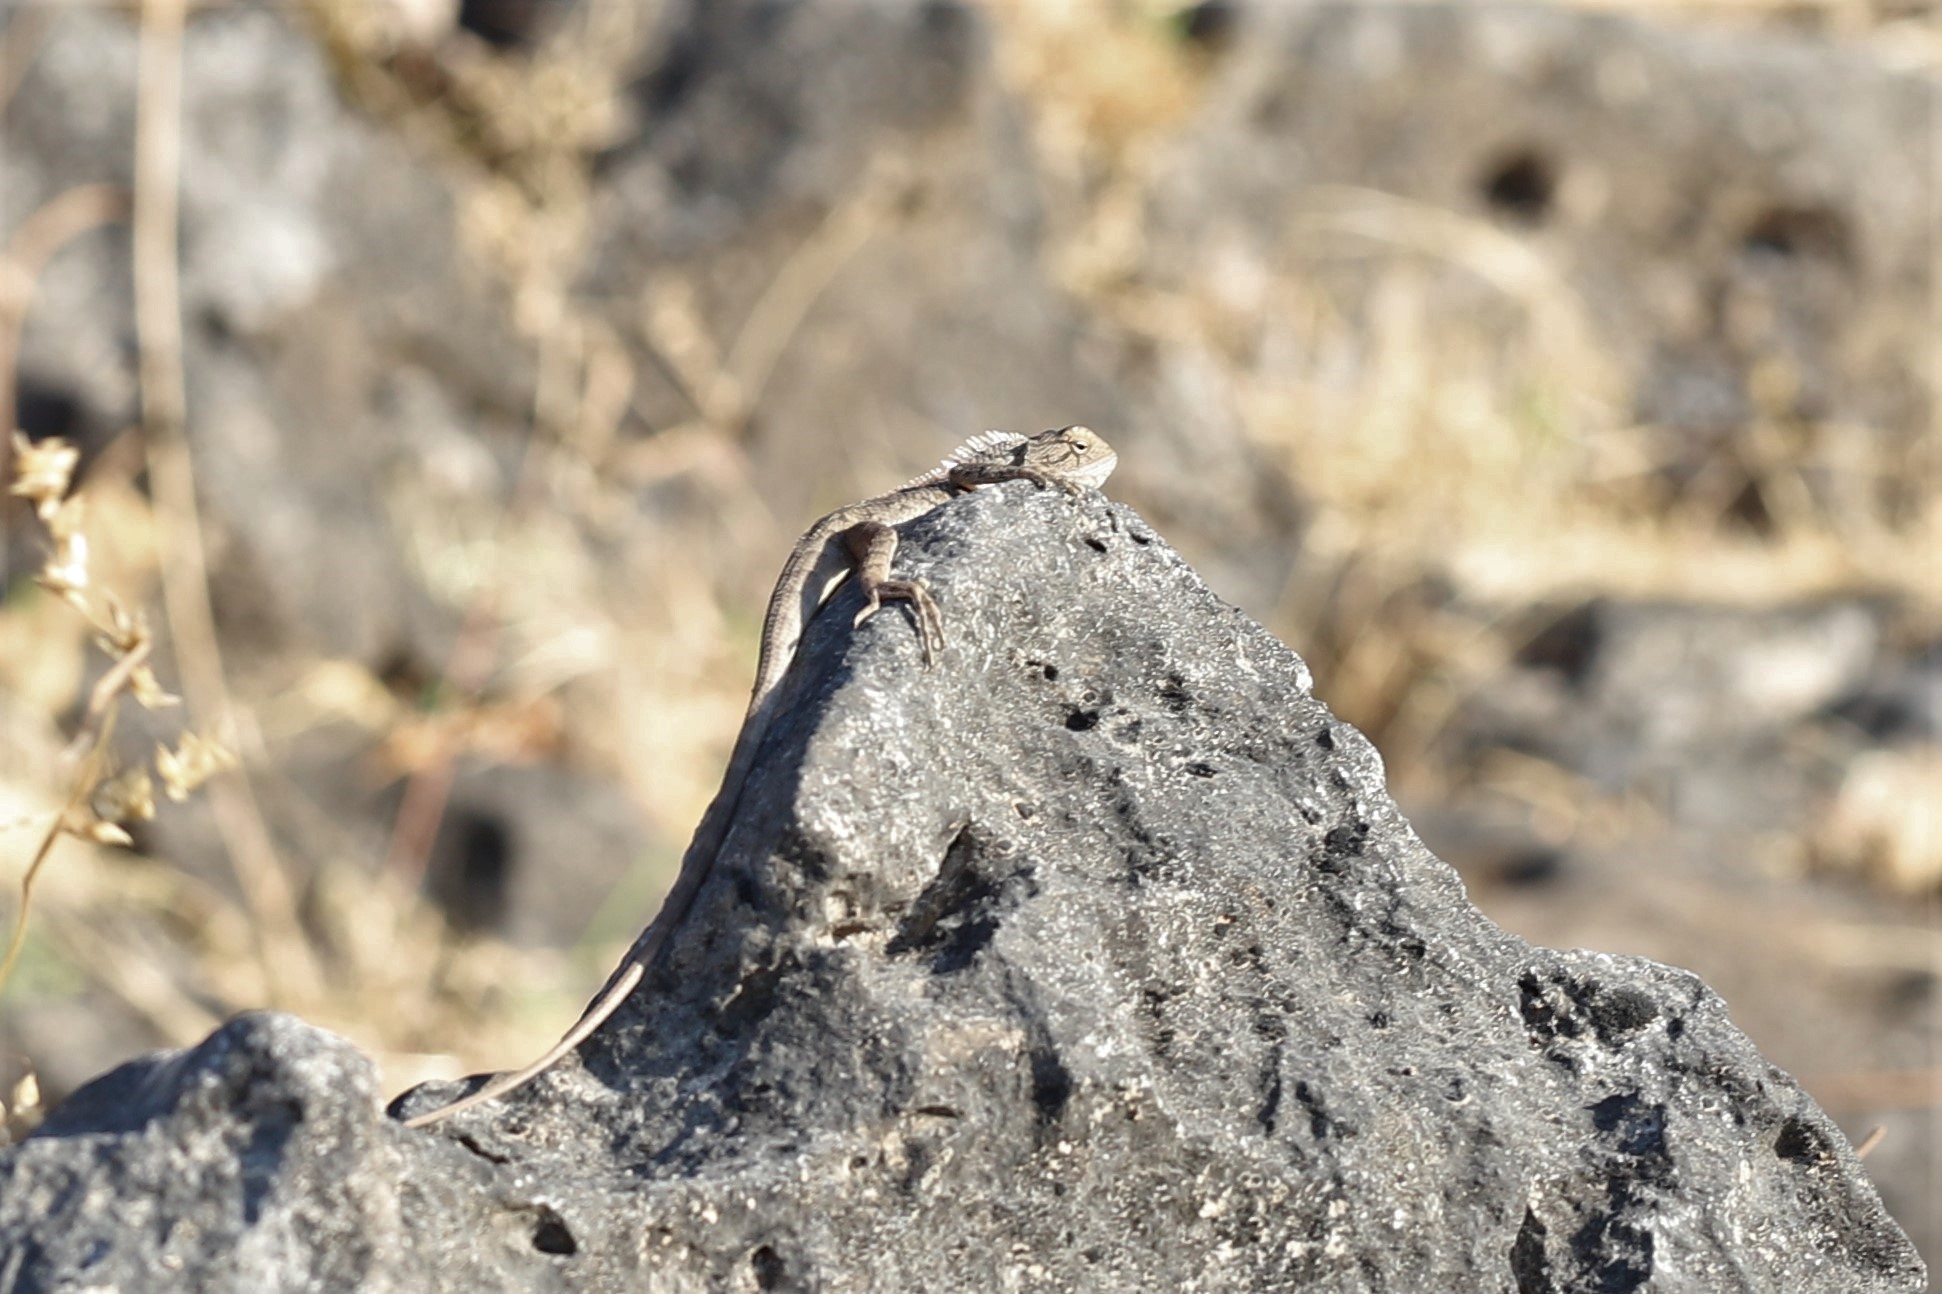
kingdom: Animalia
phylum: Chordata
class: Squamata
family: Agamidae
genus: Calotes
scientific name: Calotes versicolor
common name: Oriental garden lizard
